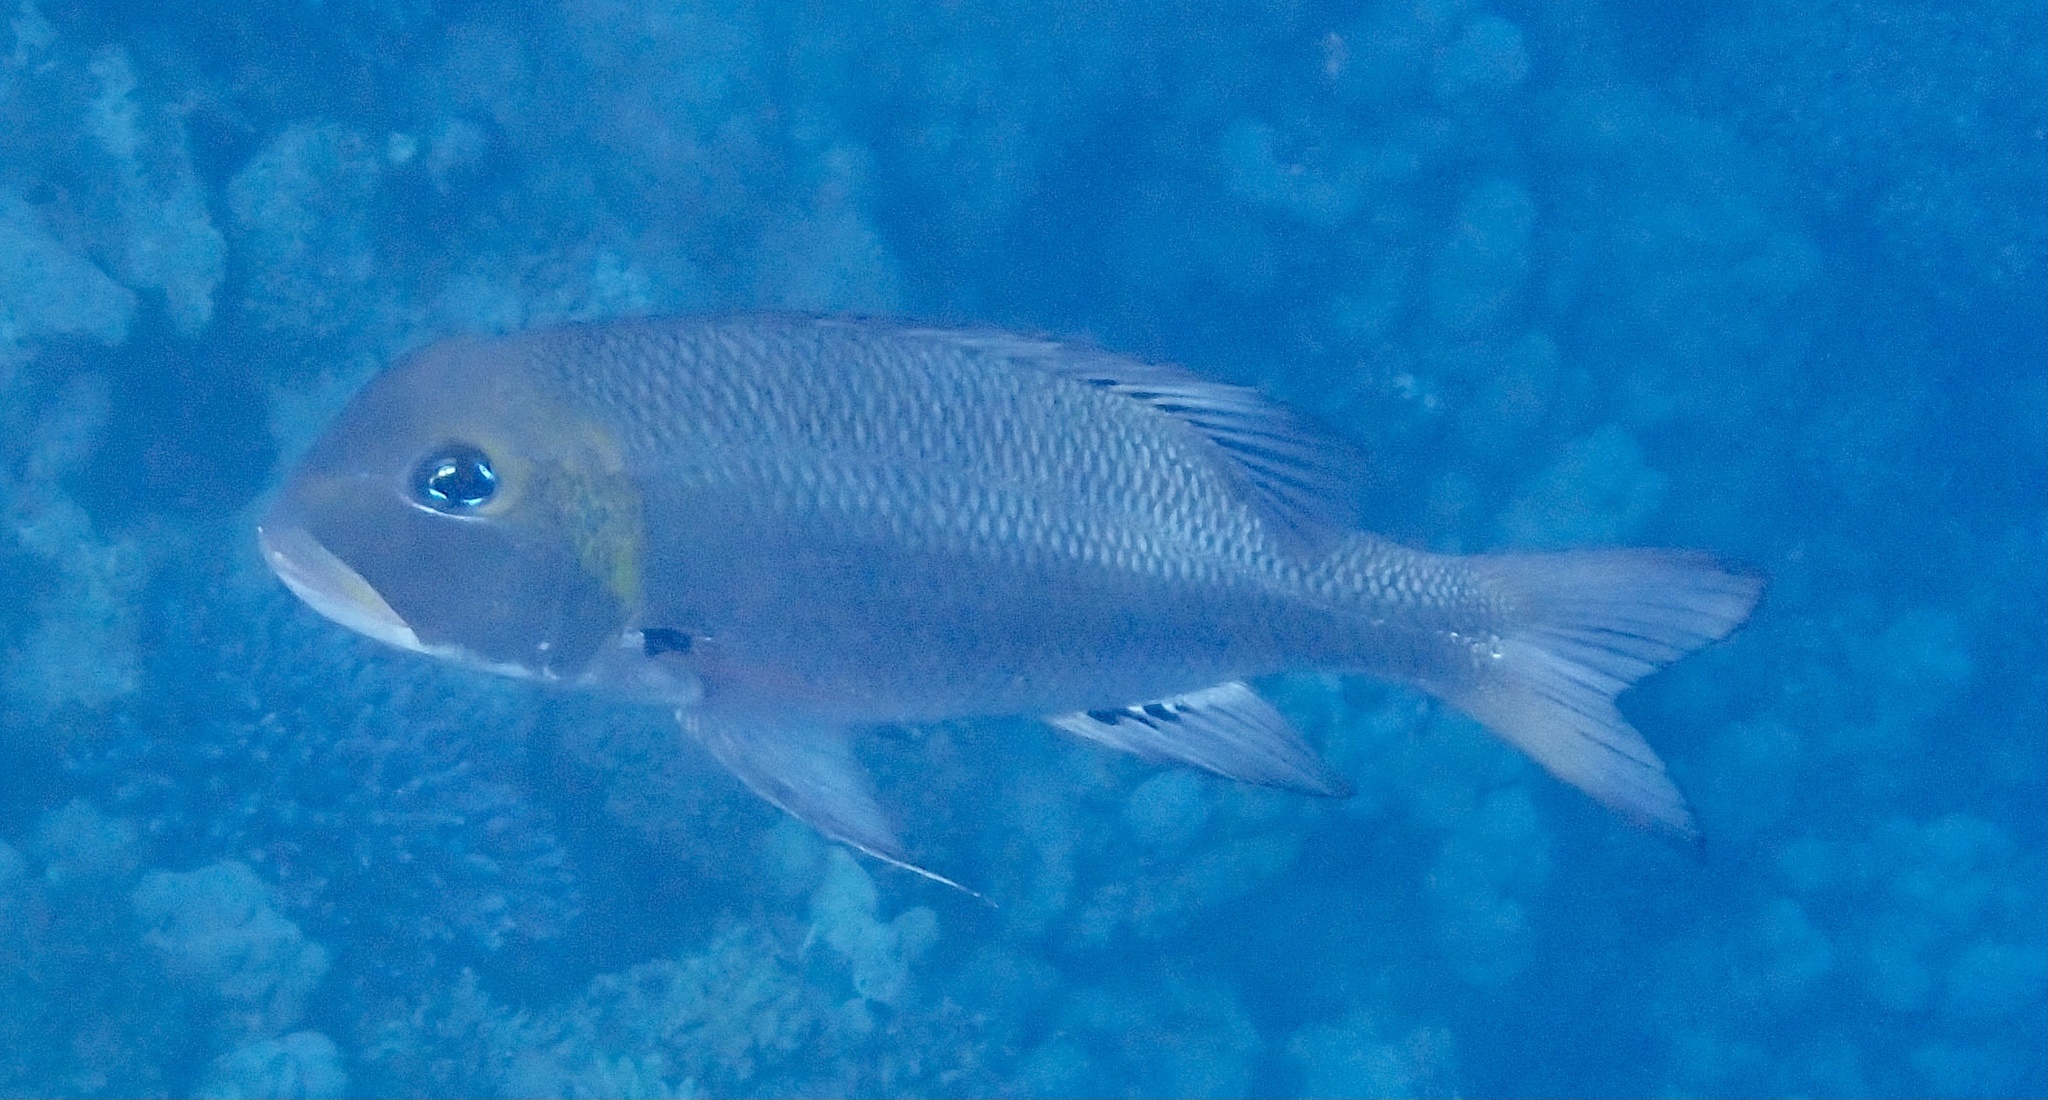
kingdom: Animalia
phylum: Chordata
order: Perciformes
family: Lethrinidae
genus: Monotaxis
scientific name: Monotaxis grandoculis
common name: Bigeye emperor
